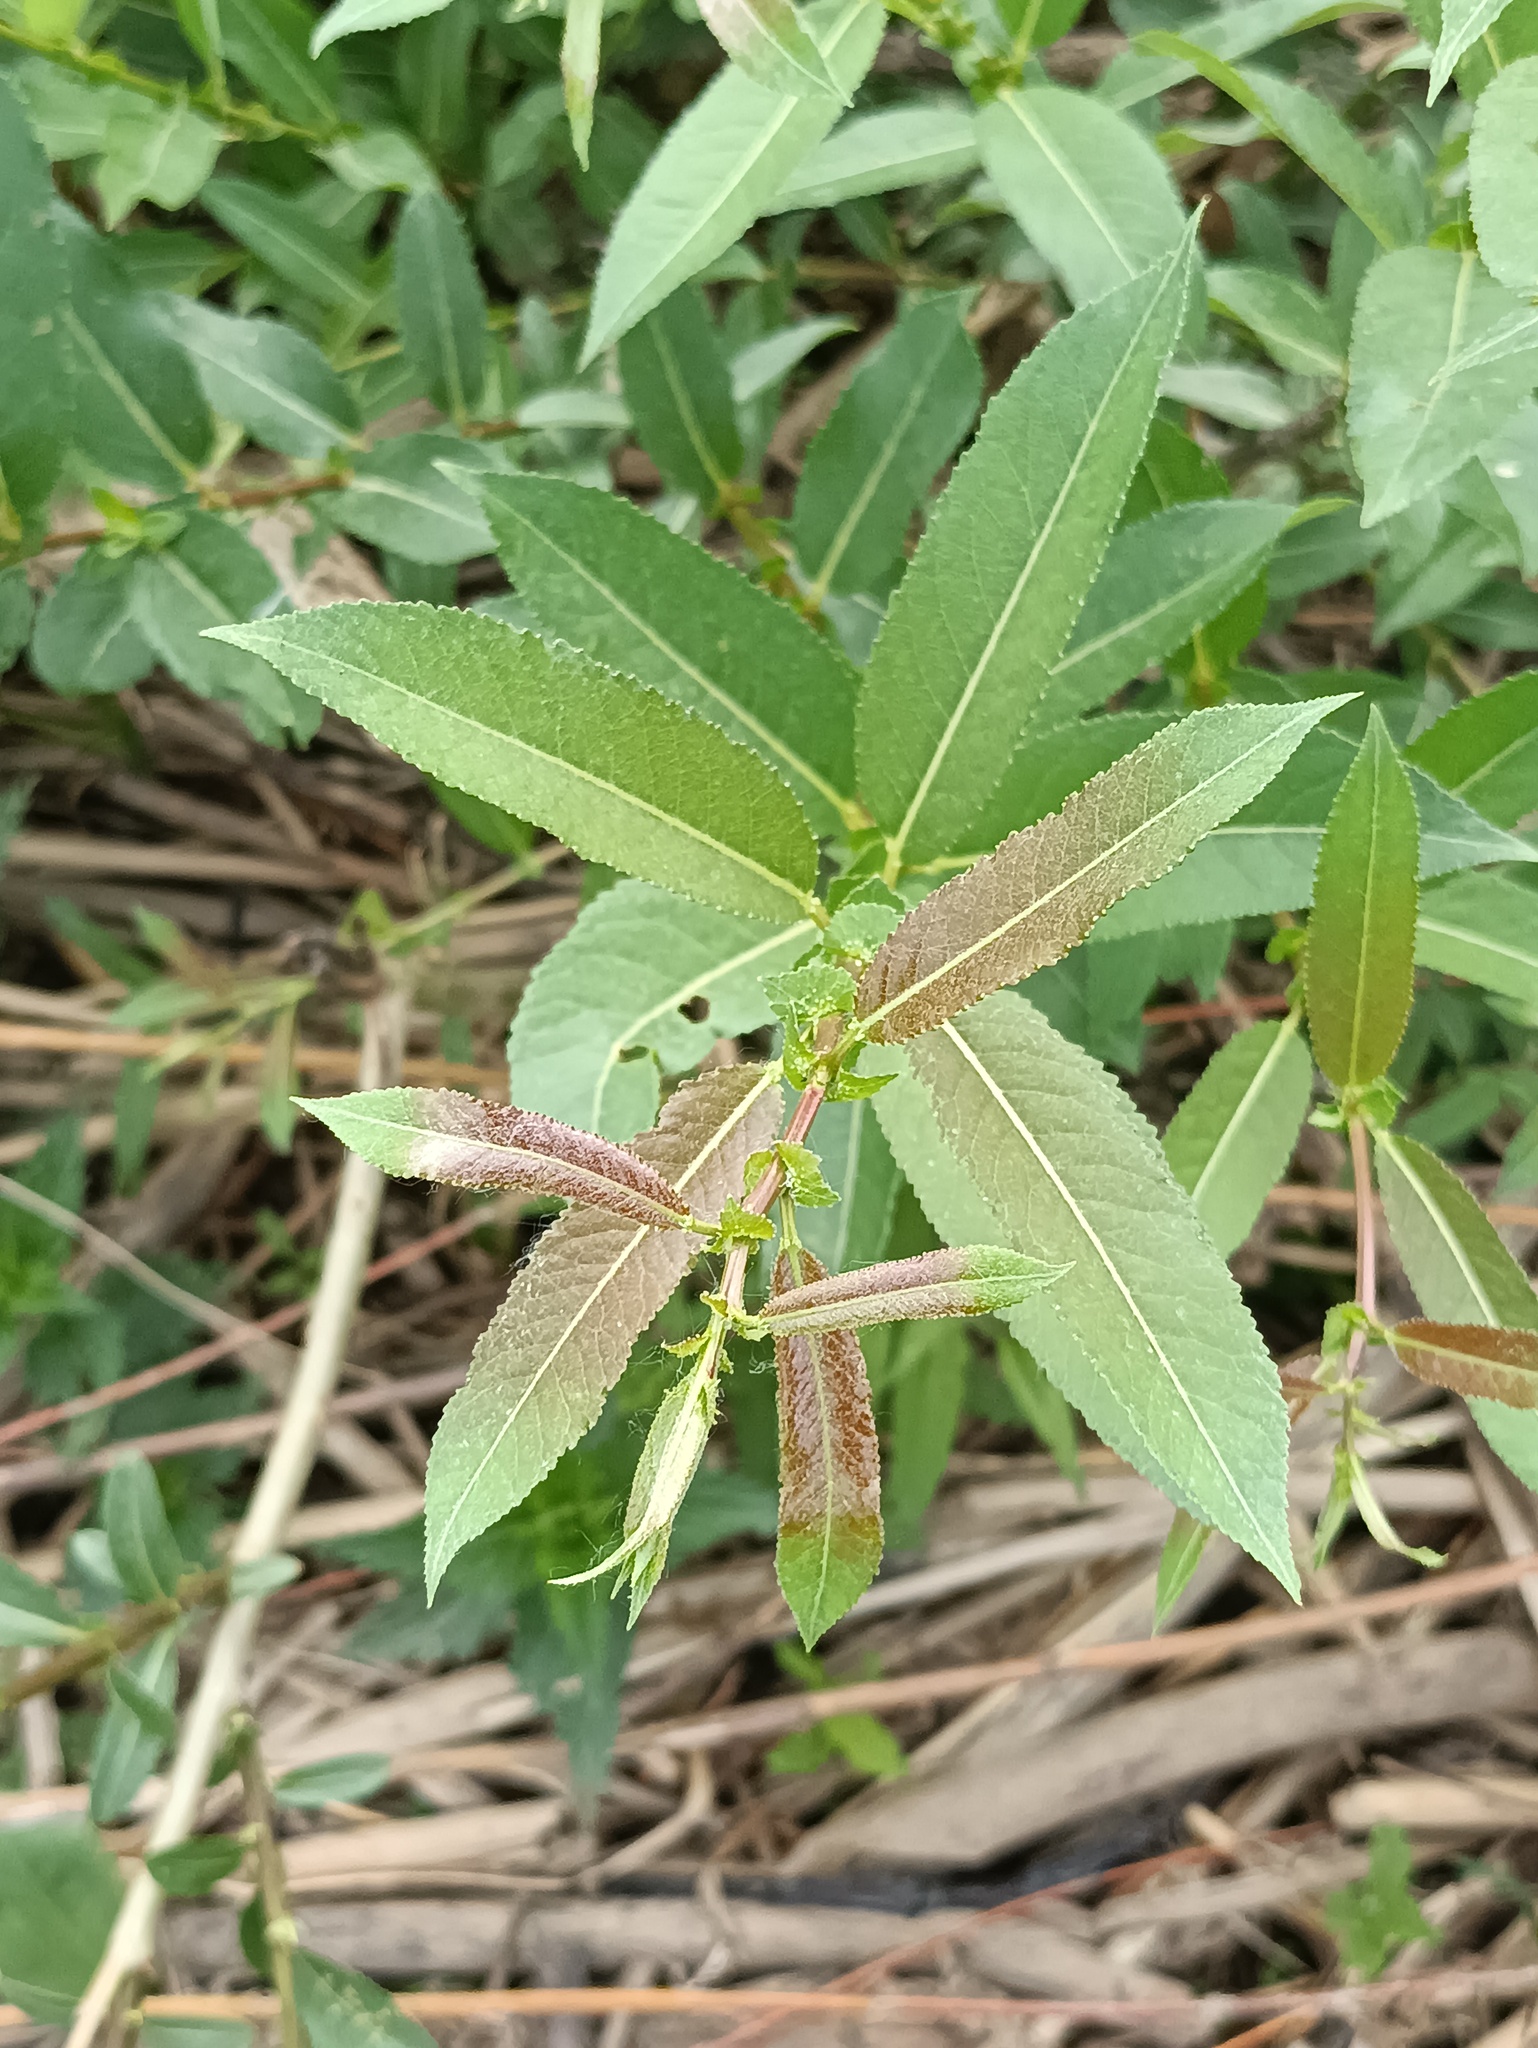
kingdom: Plantae
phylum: Tracheophyta
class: Magnoliopsida
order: Malpighiales
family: Salicaceae
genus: Salix
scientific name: Salix triandra
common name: Almond willow
